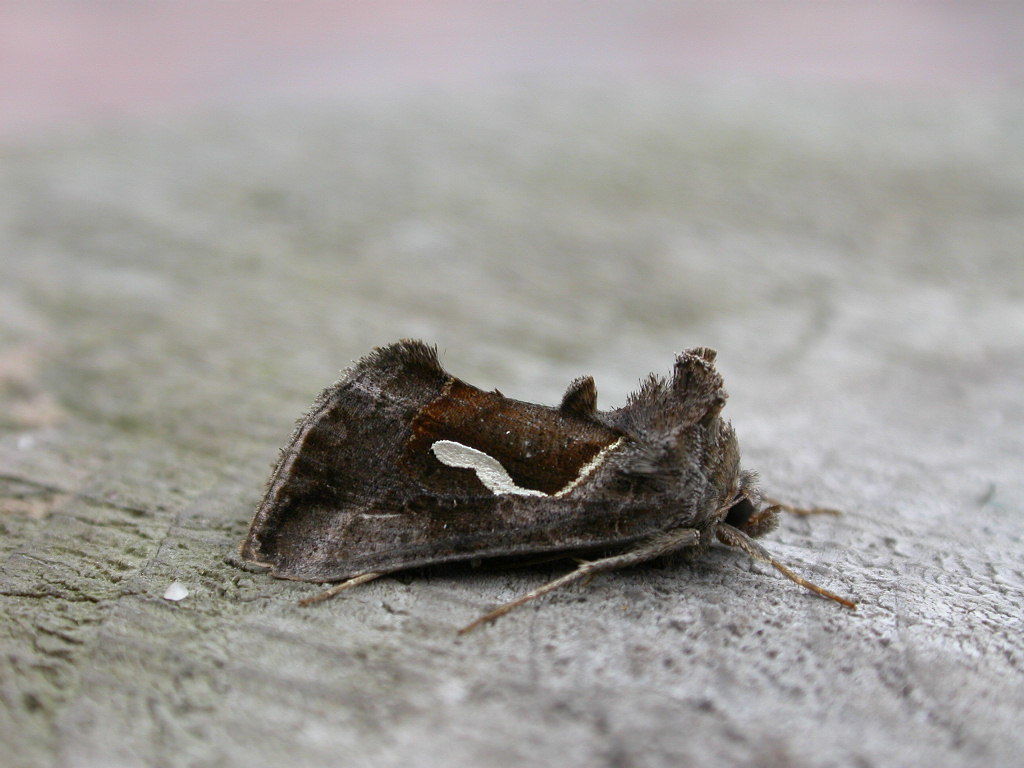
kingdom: Animalia
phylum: Arthropoda
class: Insecta
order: Lepidoptera
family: Noctuidae
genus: Macdunnoughia
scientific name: Macdunnoughia confusa
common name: Dewick's plusia
